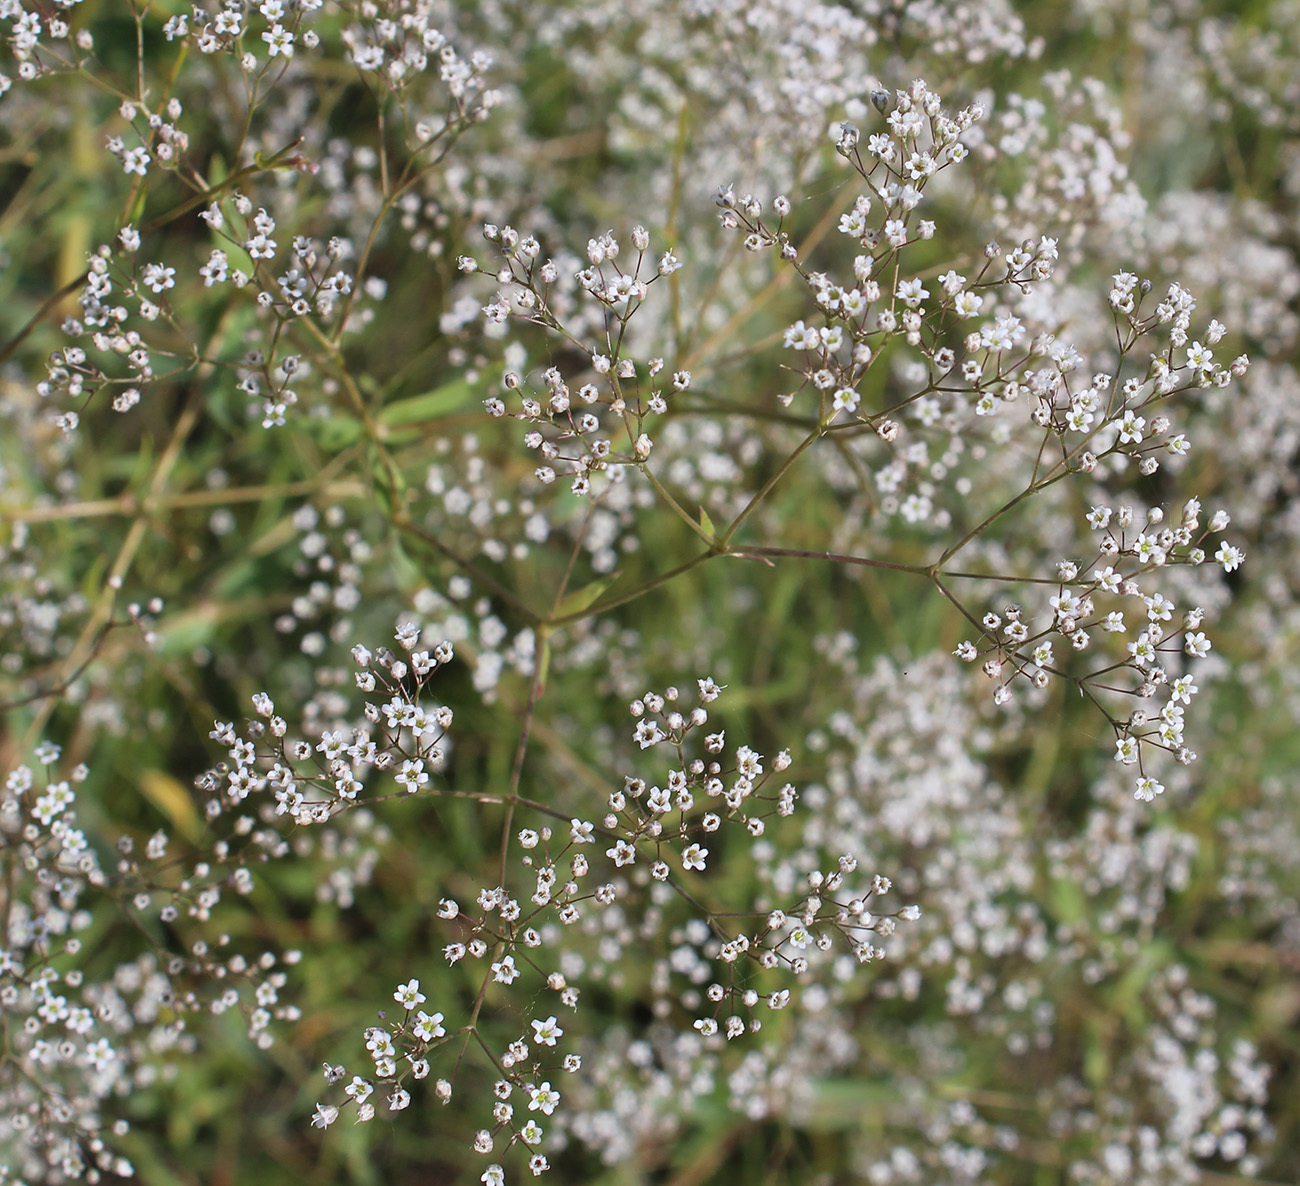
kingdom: Plantae
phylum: Tracheophyta
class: Magnoliopsida
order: Caryophyllales
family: Caryophyllaceae
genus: Gypsophila
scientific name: Gypsophila paniculata
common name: Baby's-breath
